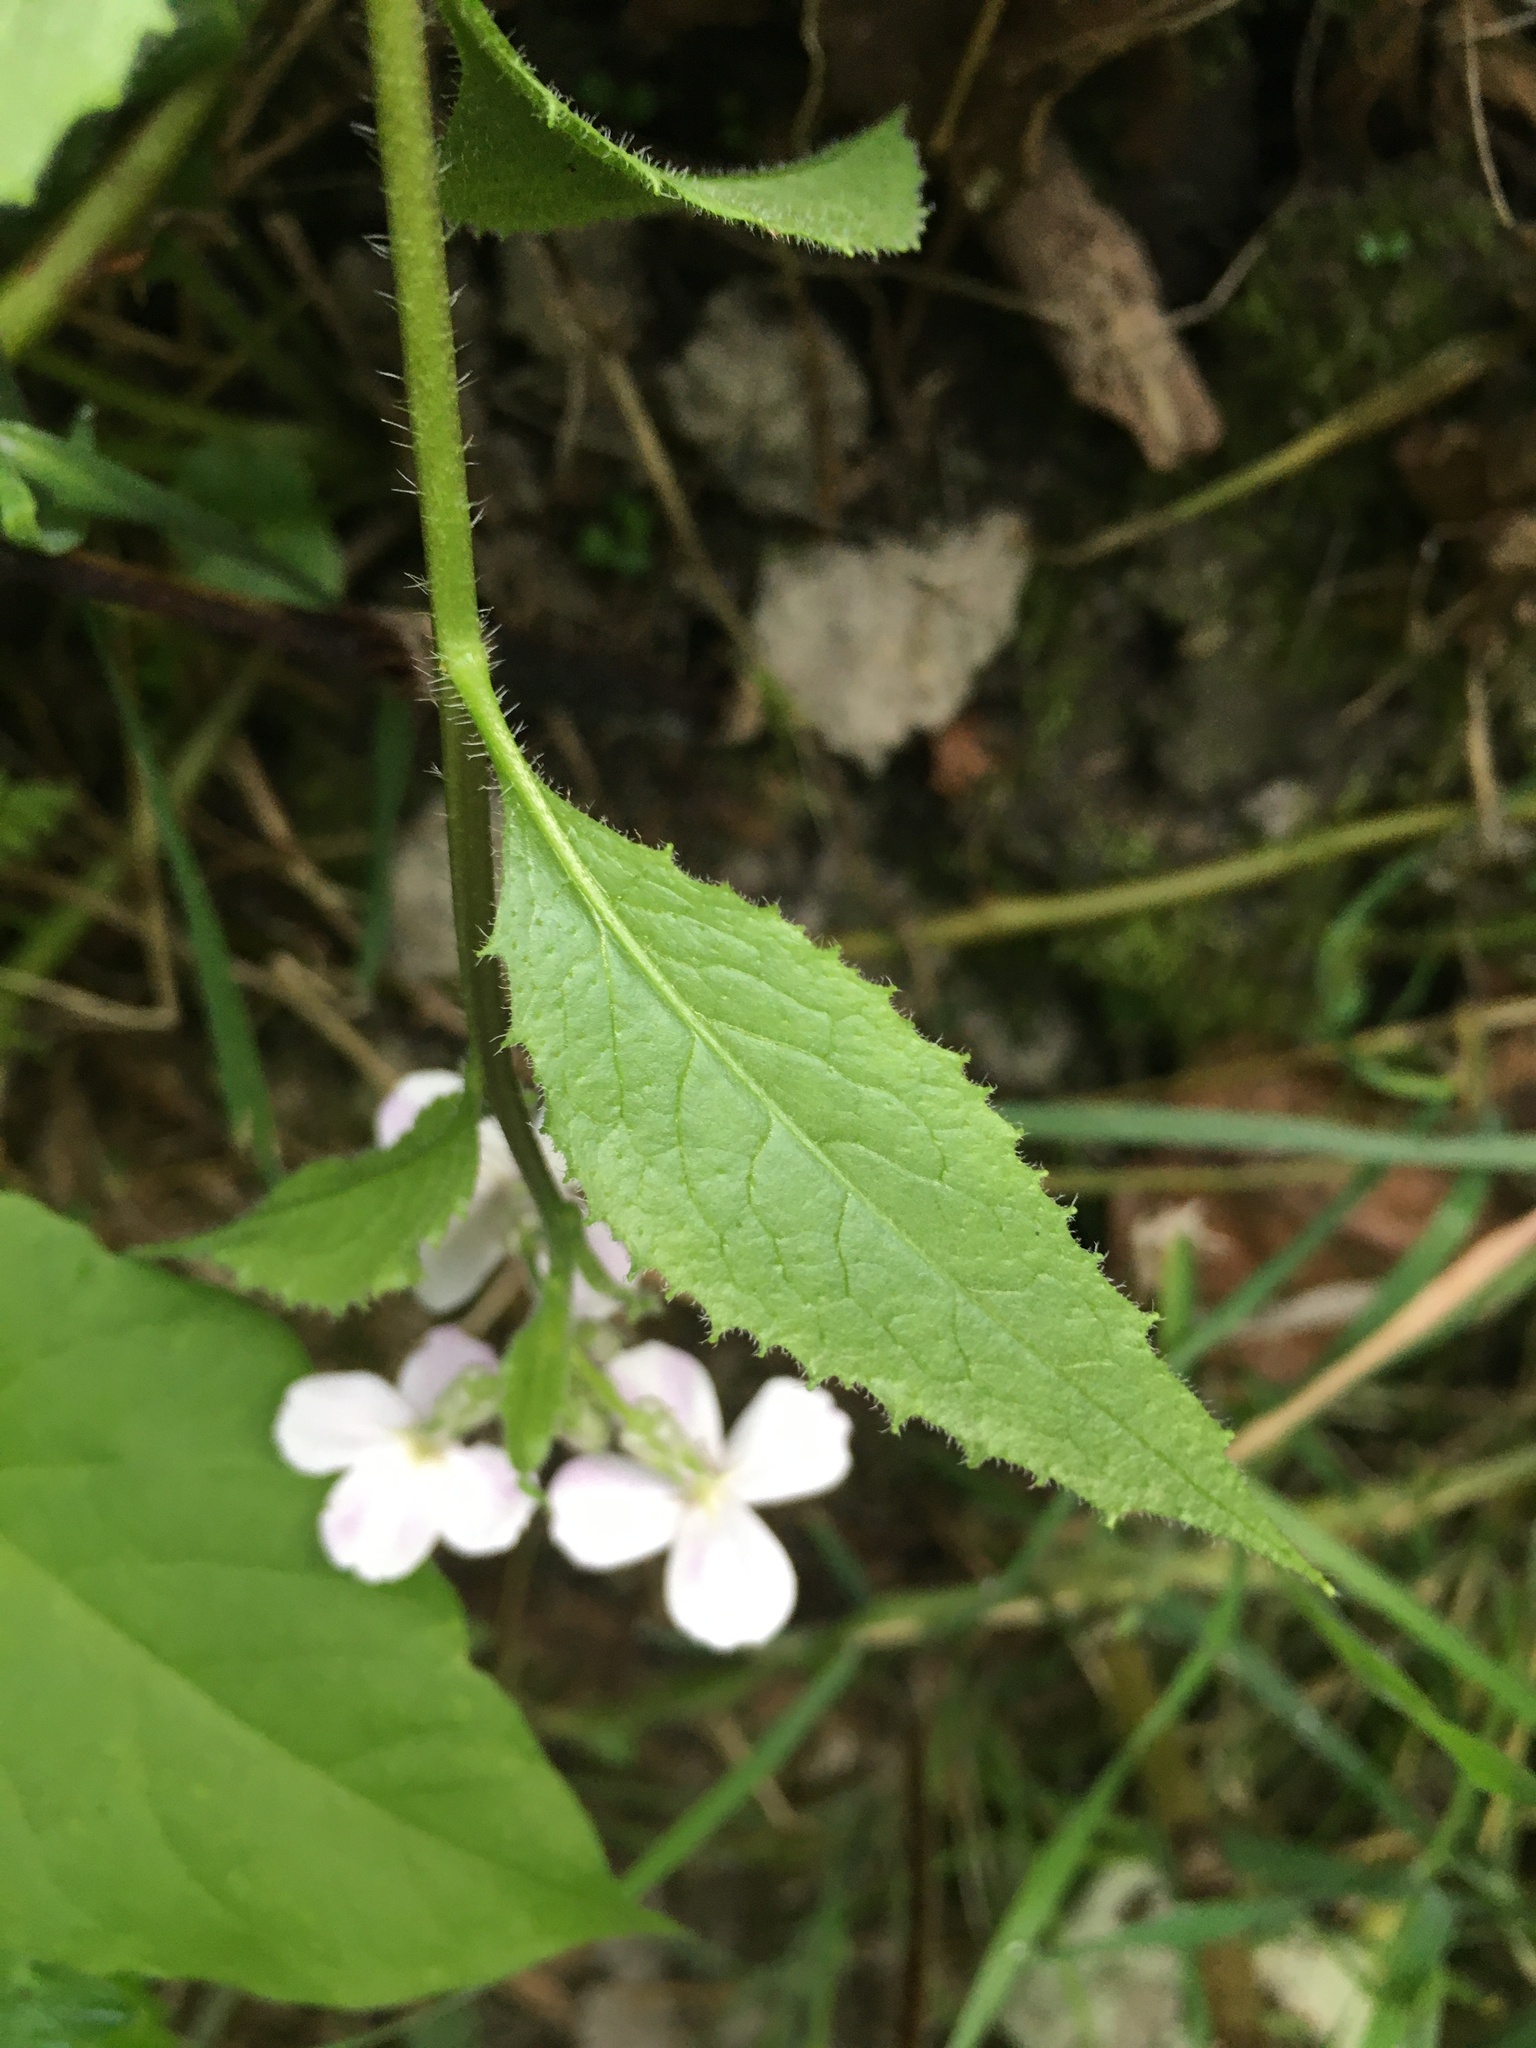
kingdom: Plantae
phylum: Tracheophyta
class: Magnoliopsida
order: Brassicales
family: Brassicaceae
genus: Hesperis
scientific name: Hesperis matronalis
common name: Dame's-violet
